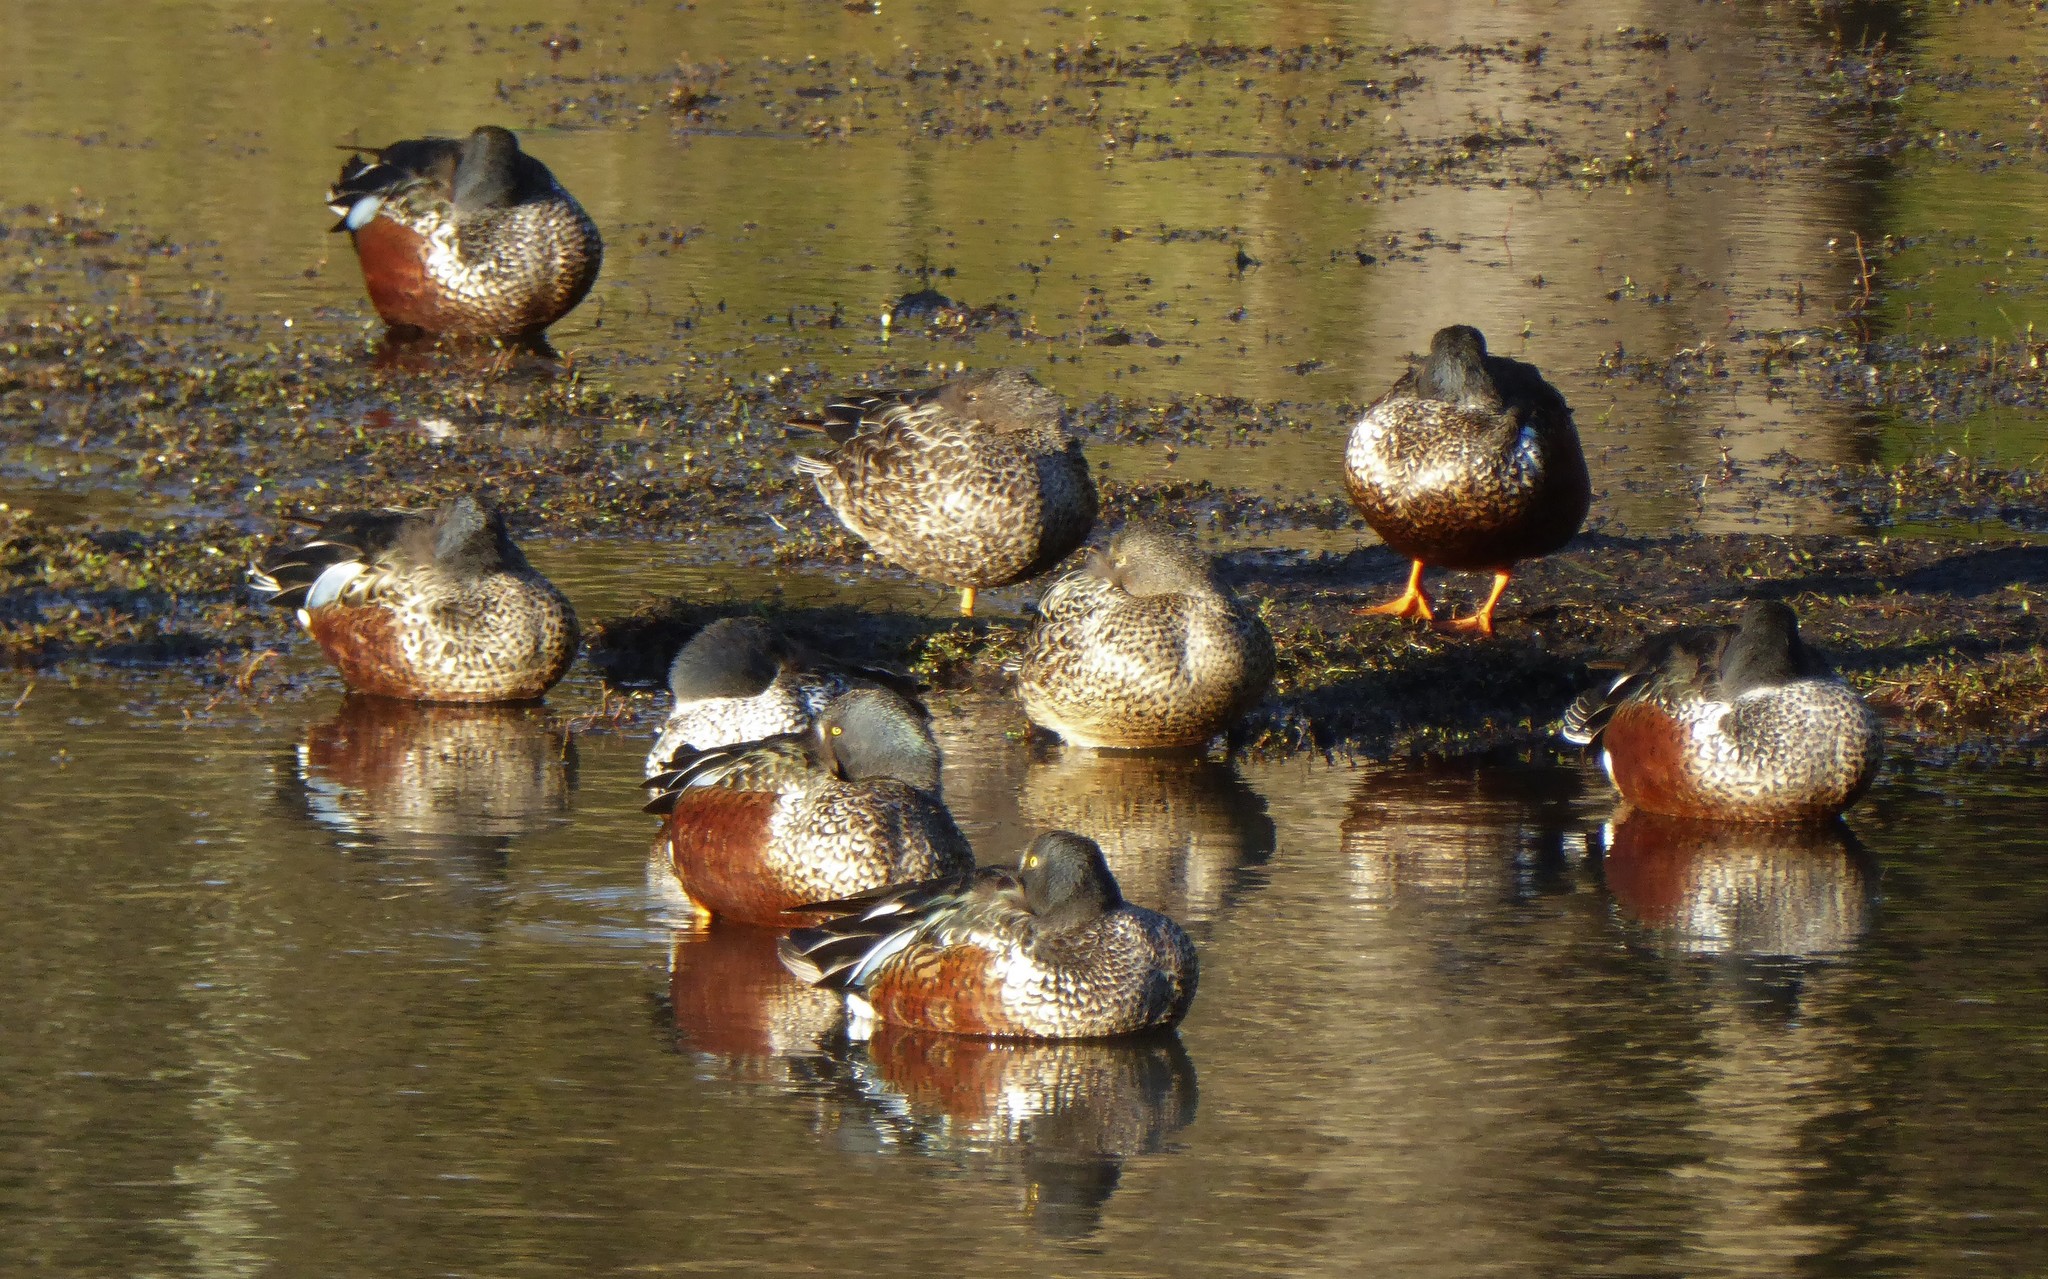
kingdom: Animalia
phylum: Chordata
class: Aves
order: Anseriformes
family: Anatidae
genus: Spatula
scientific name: Spatula rhynchotis
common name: Australian shoveler
